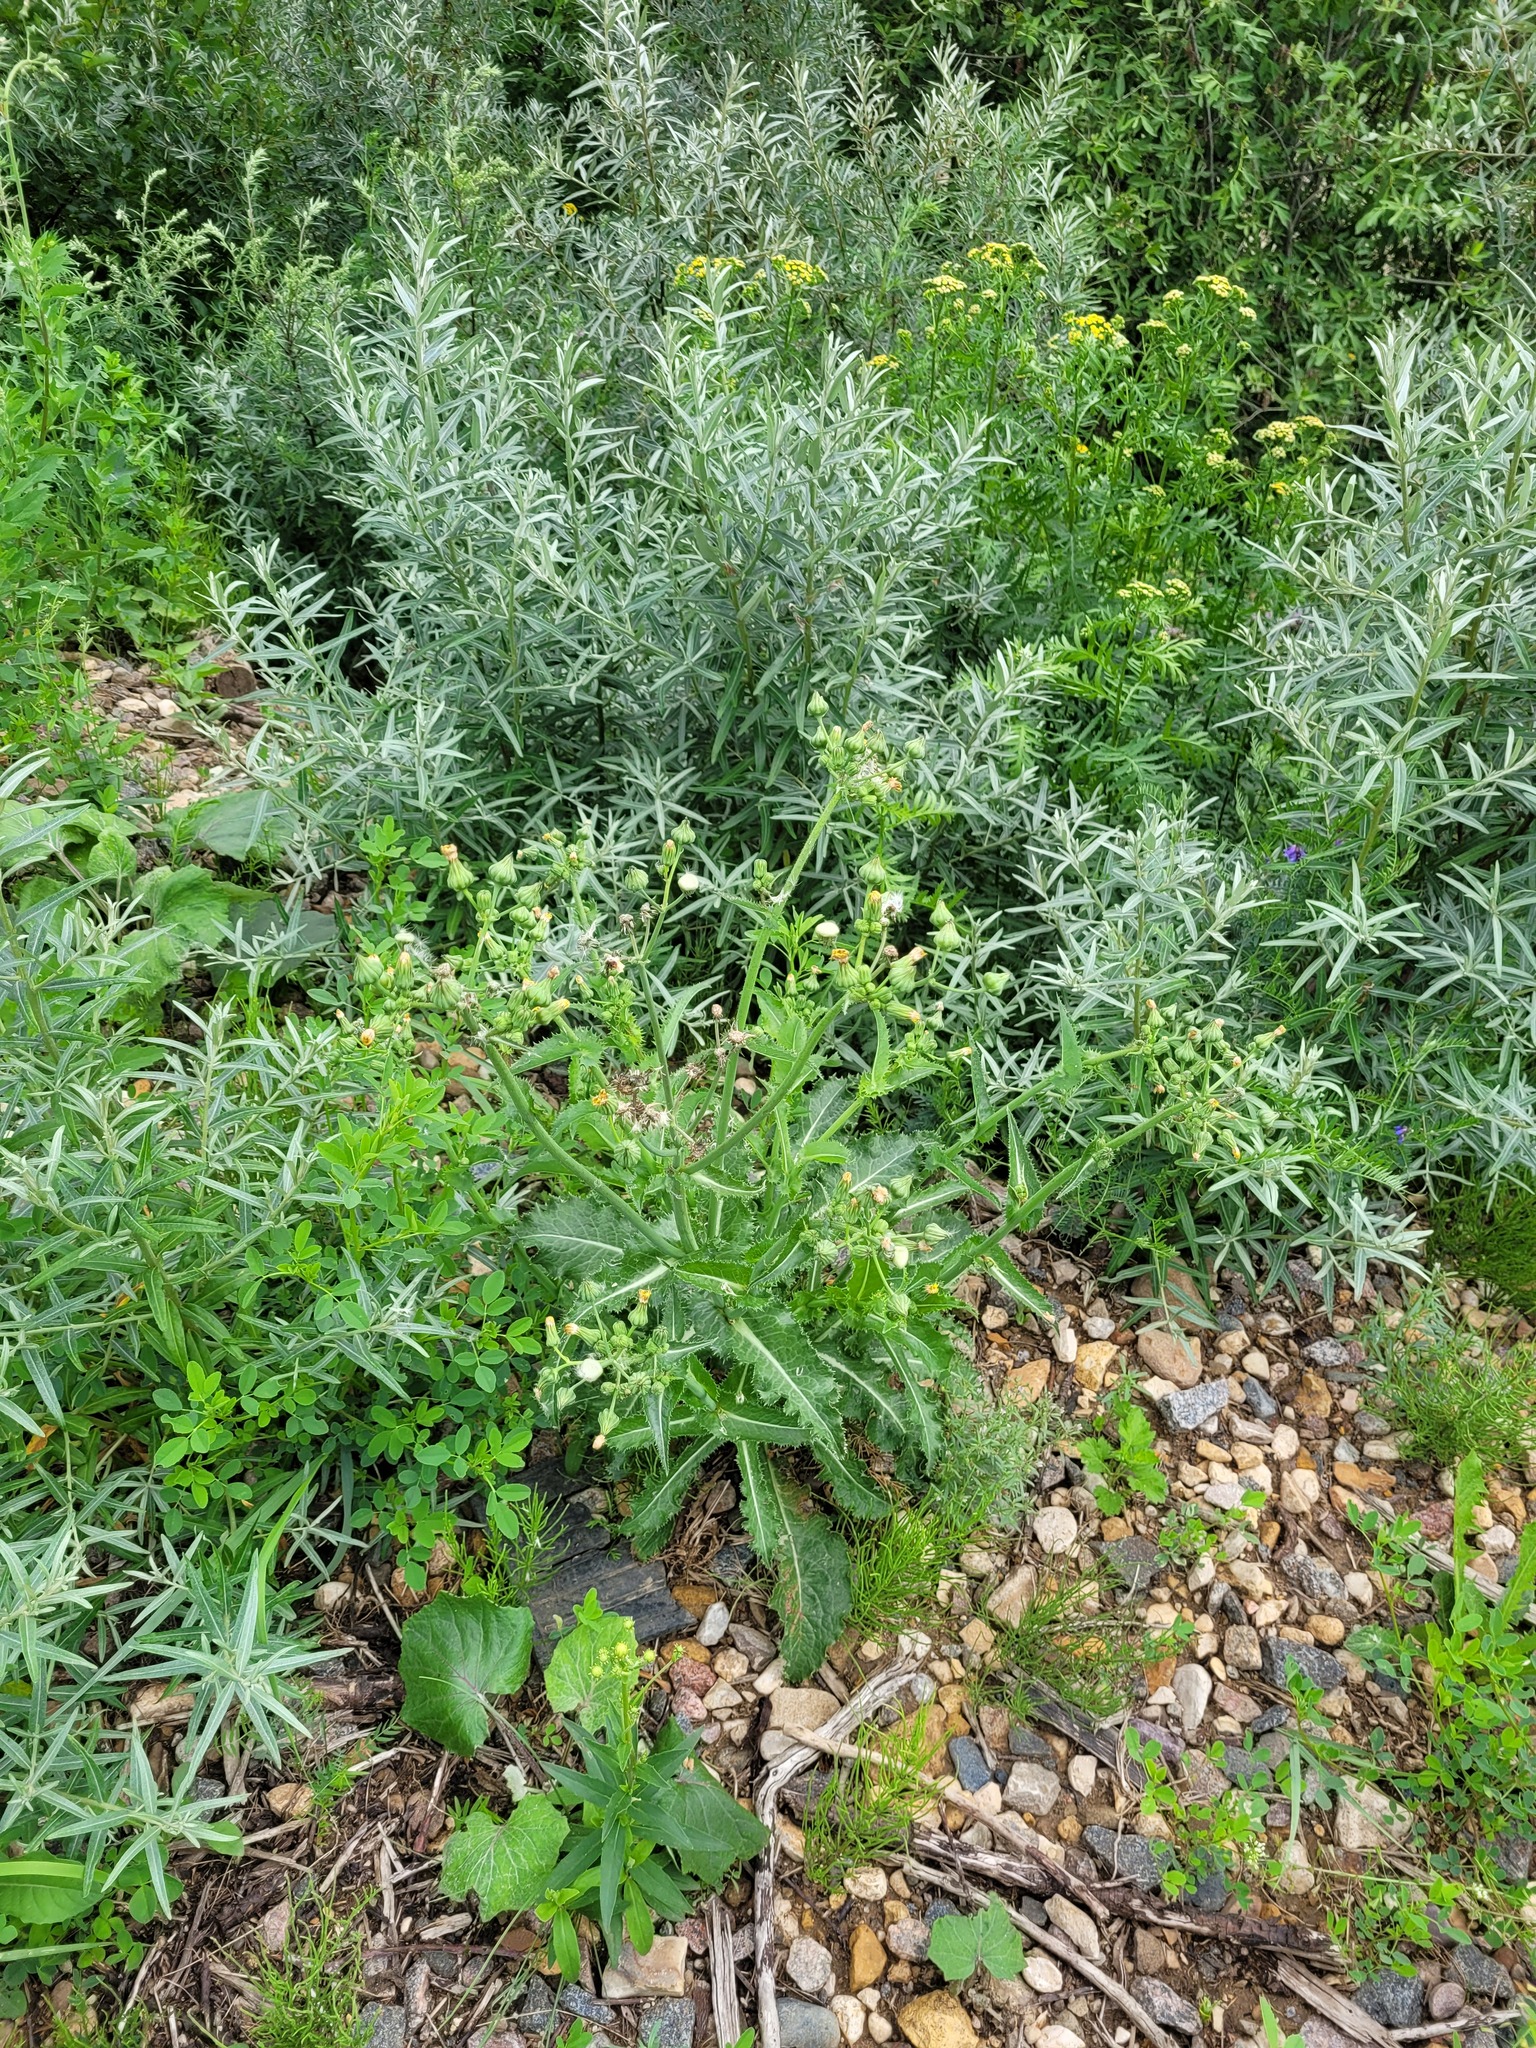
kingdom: Plantae
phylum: Tracheophyta
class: Magnoliopsida
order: Asterales
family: Asteraceae
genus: Sonchus
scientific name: Sonchus asper
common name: Prickly sow-thistle
